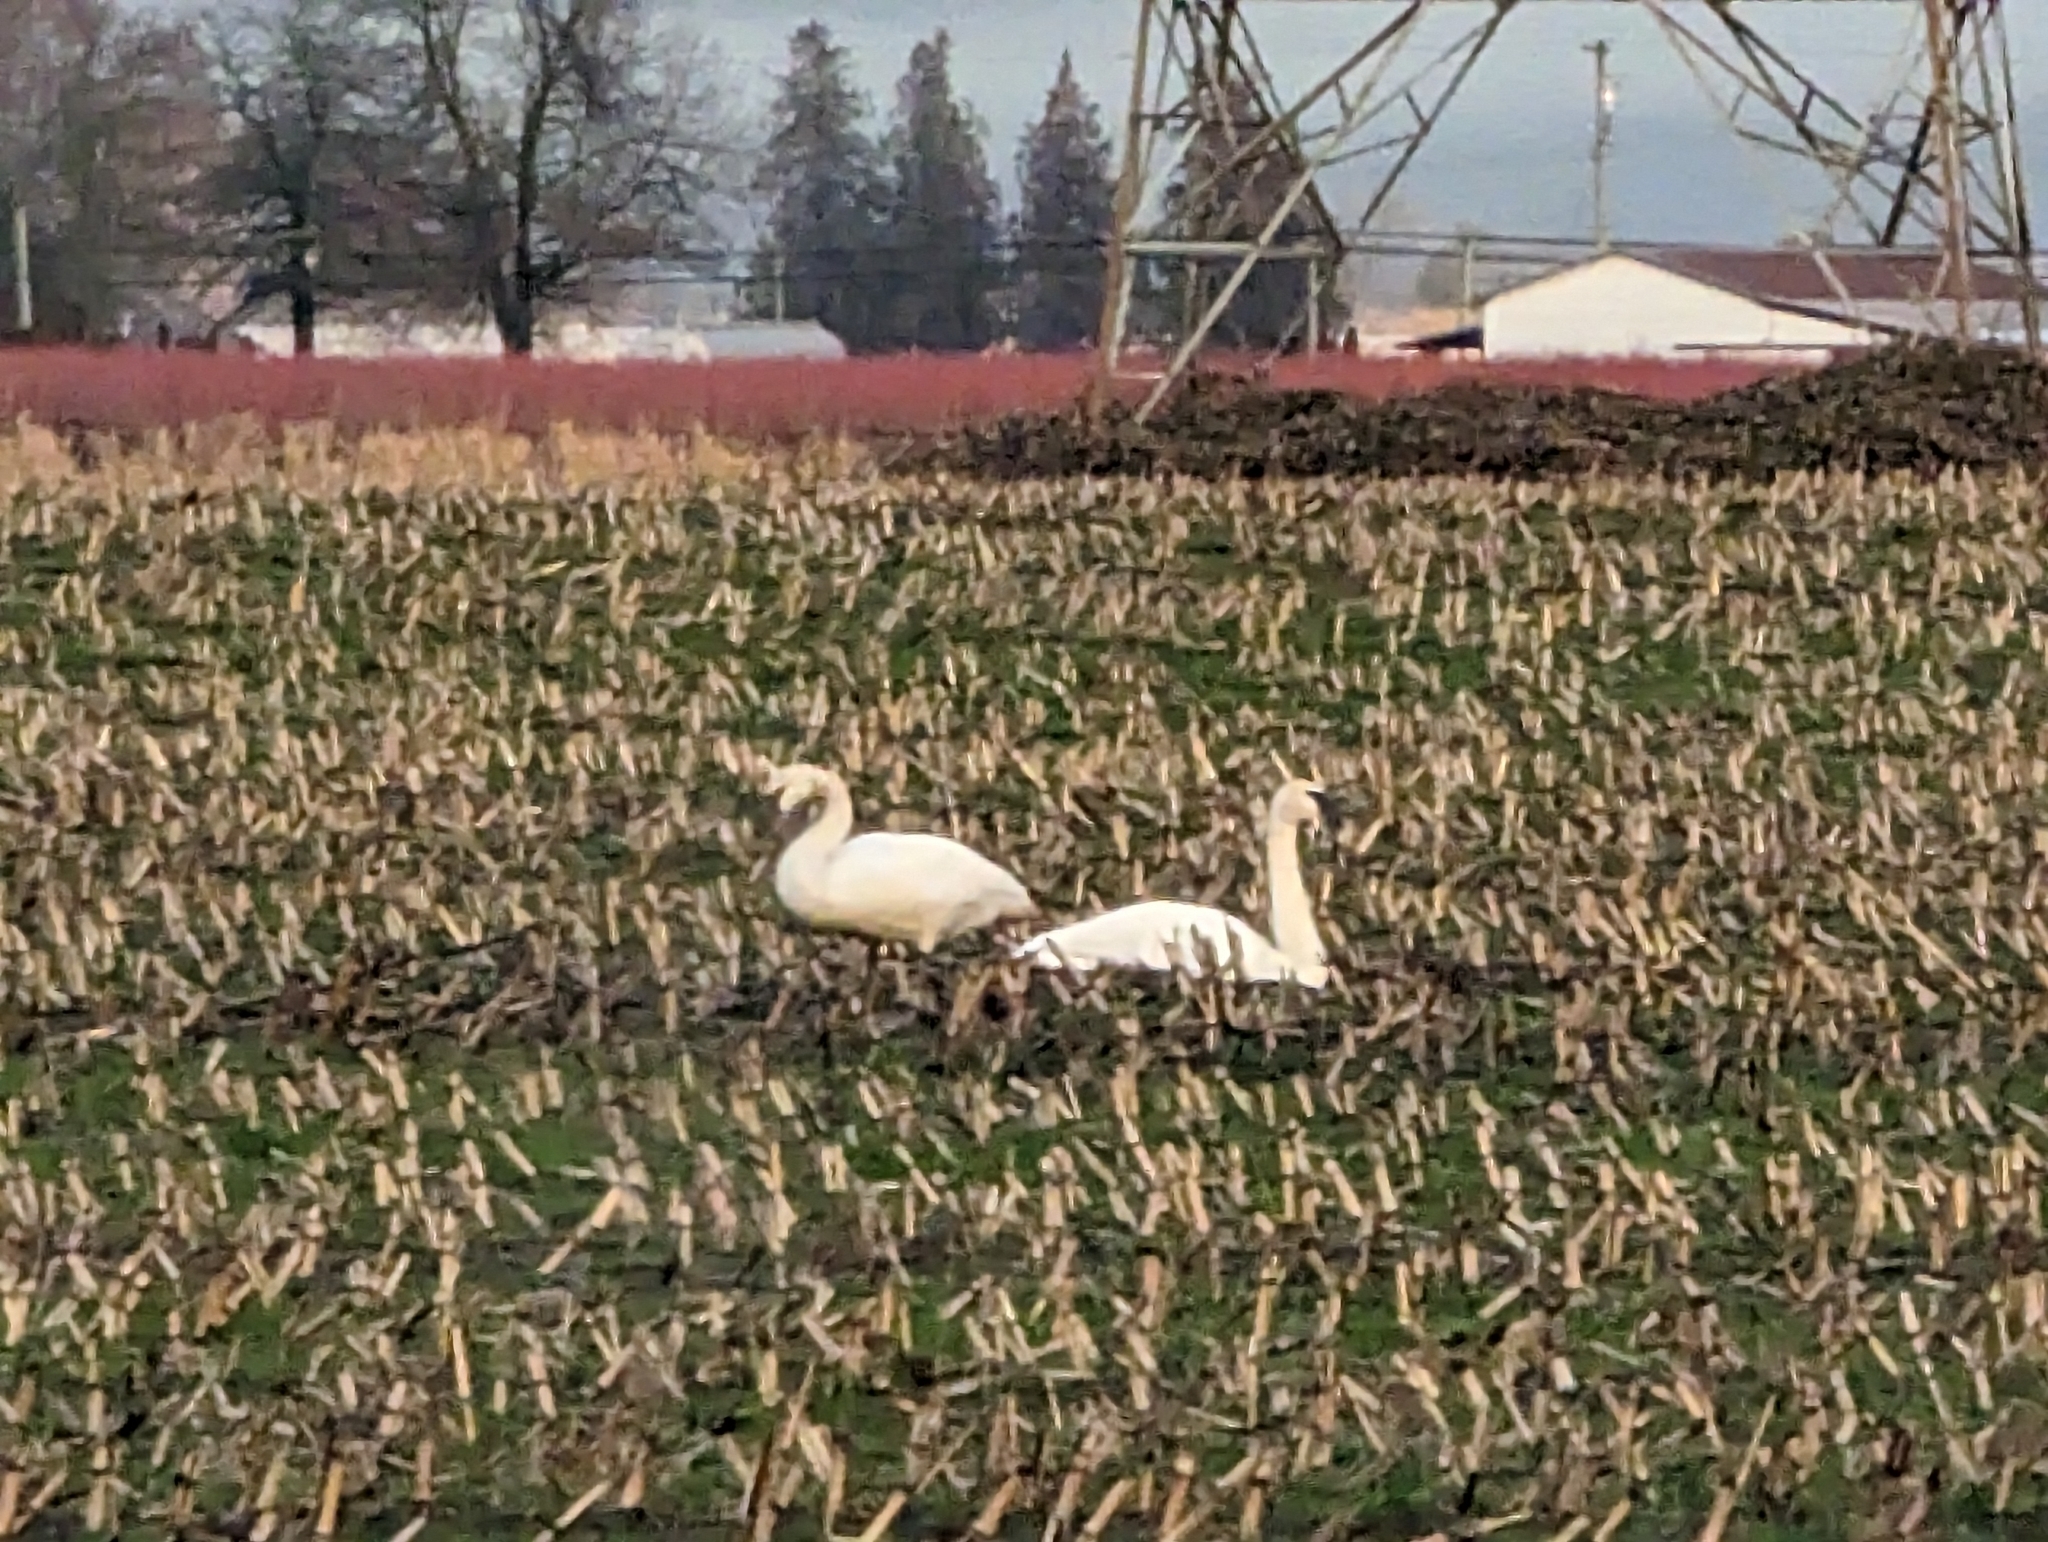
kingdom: Animalia
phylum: Chordata
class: Aves
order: Anseriformes
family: Anatidae
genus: Cygnus
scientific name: Cygnus buccinator
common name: Trumpeter swan
